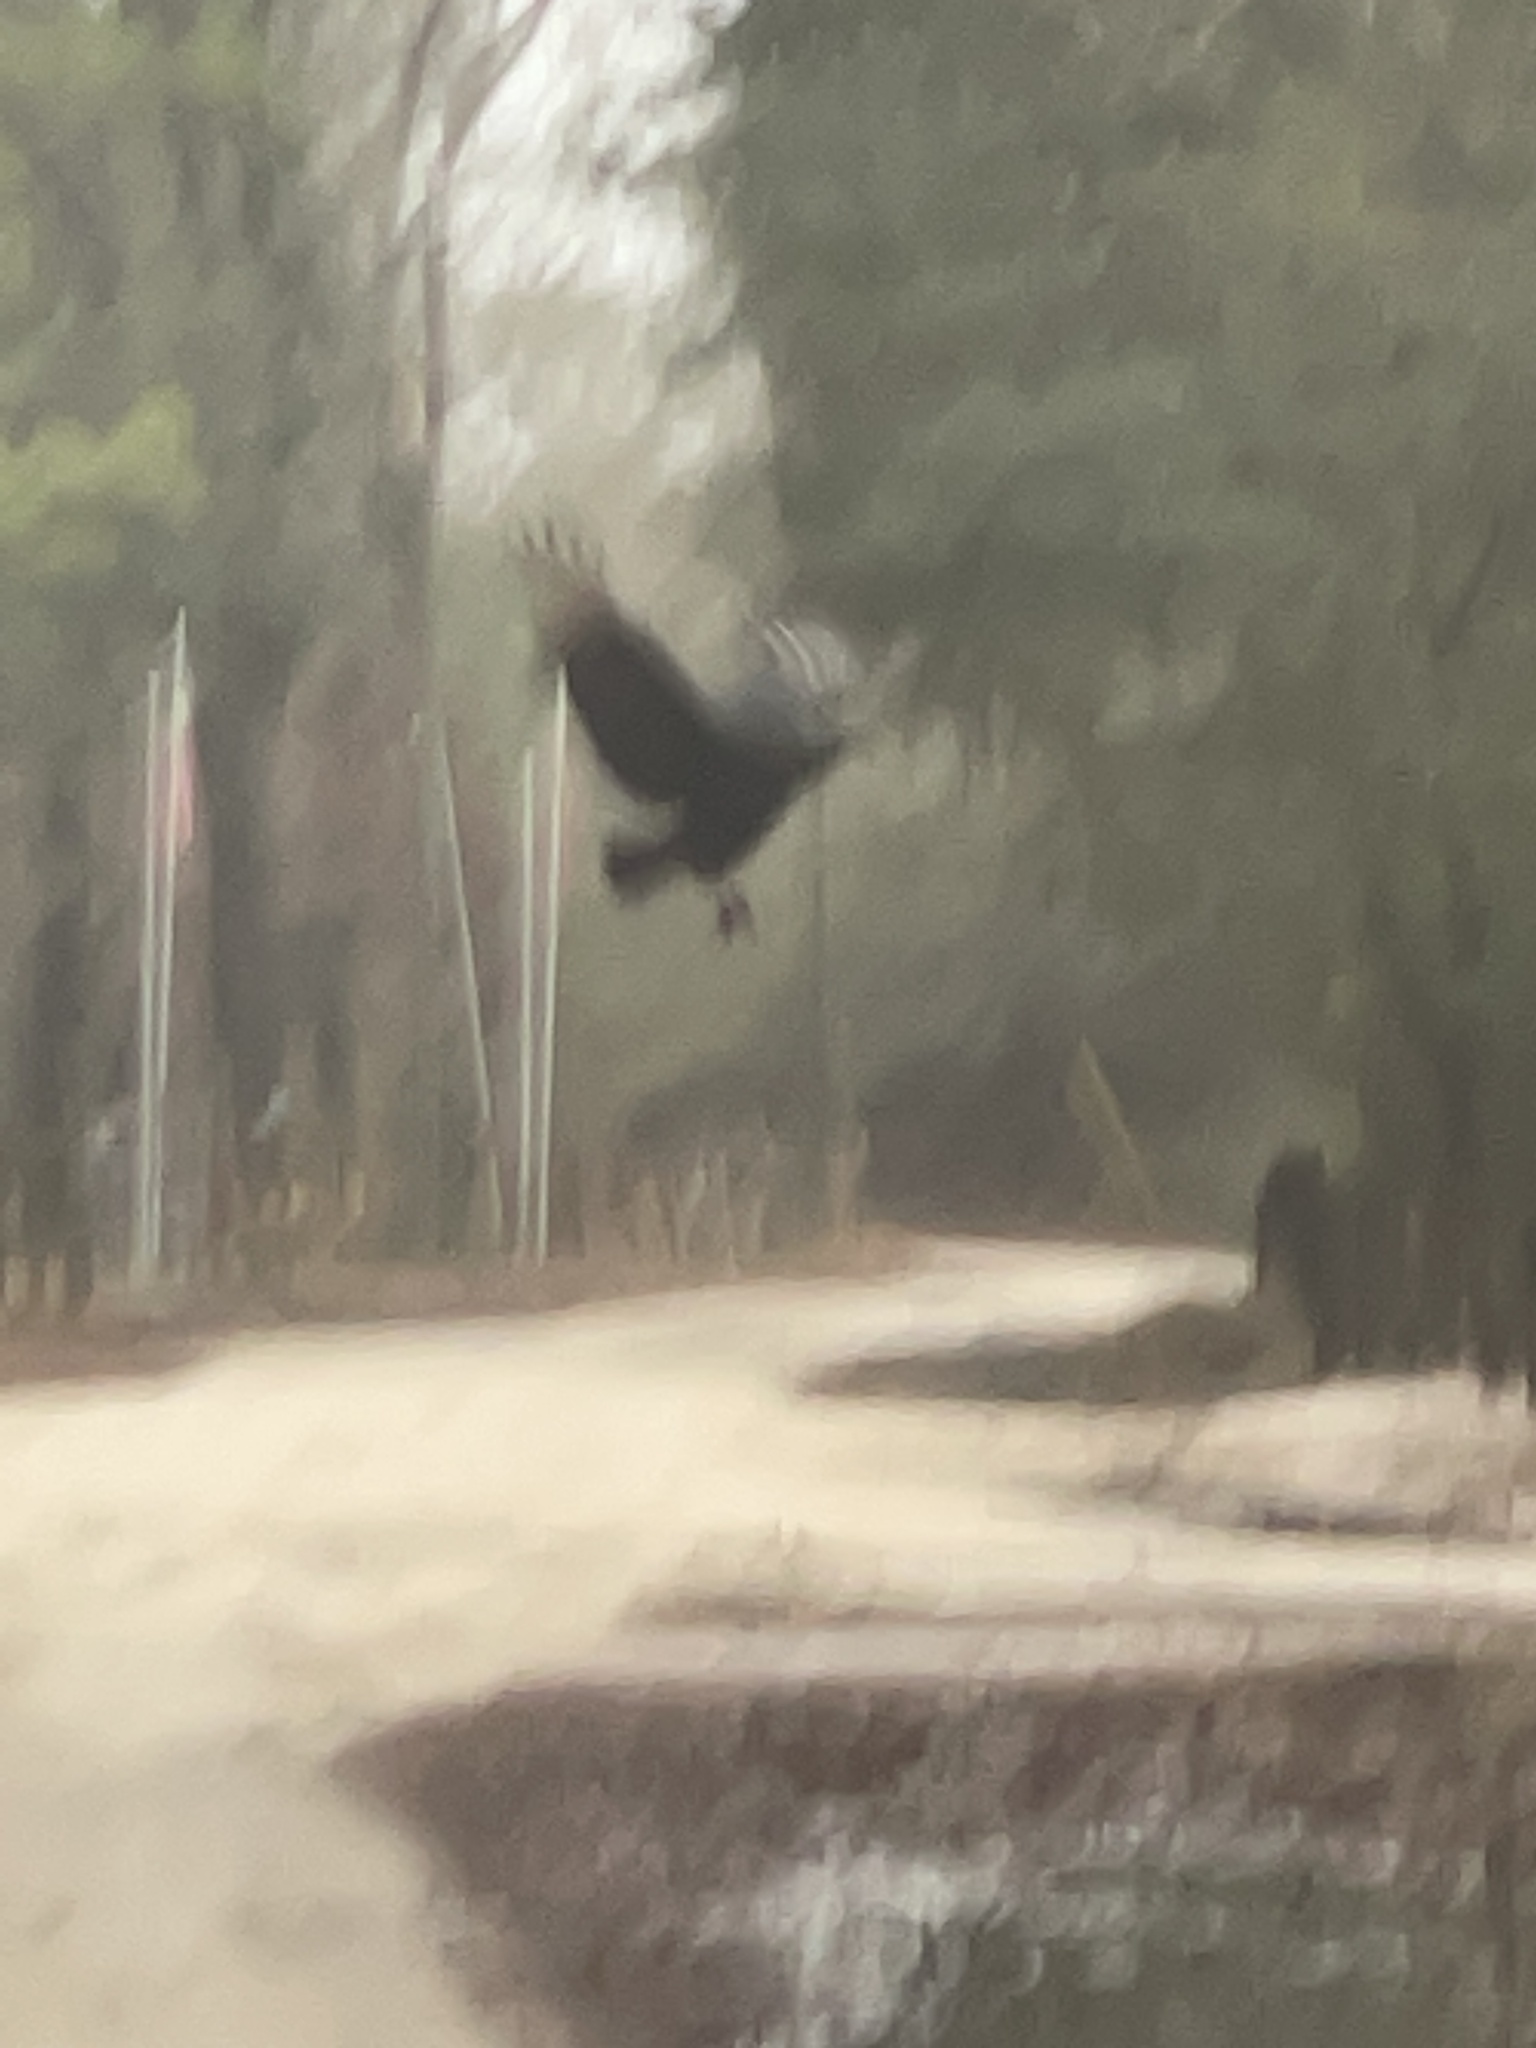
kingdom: Animalia
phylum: Chordata
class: Aves
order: Accipitriformes
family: Cathartidae
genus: Coragyps
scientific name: Coragyps atratus
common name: Black vulture
